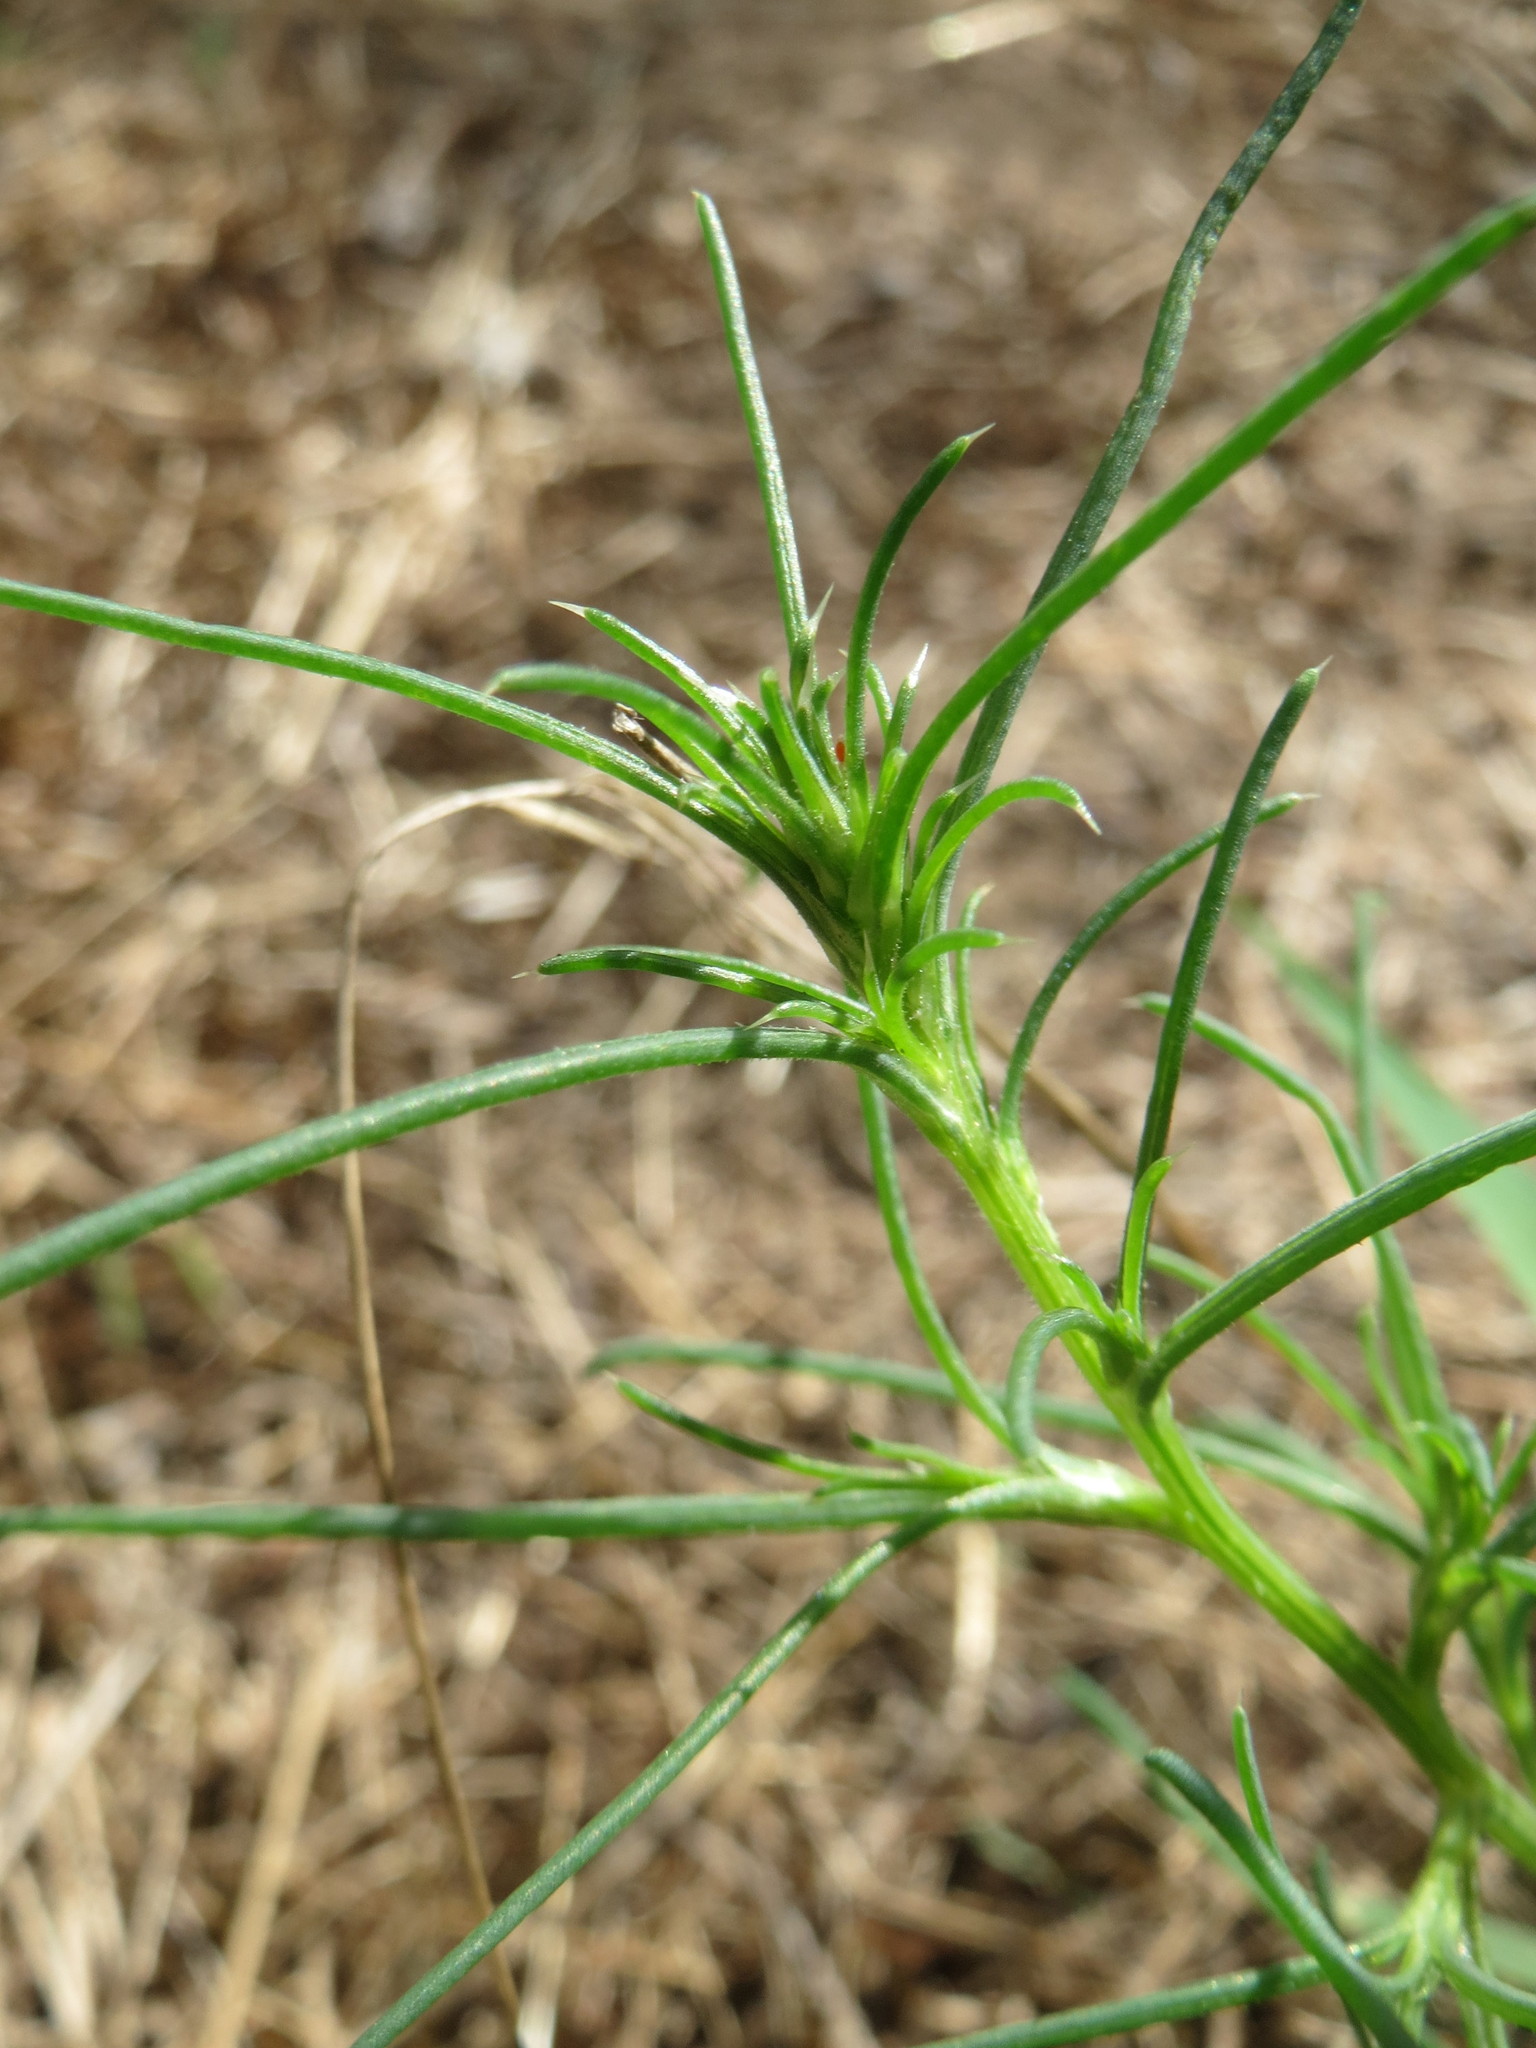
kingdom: Plantae
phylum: Tracheophyta
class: Magnoliopsida
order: Caryophyllales
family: Amaranthaceae
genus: Salsola
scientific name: Salsola tragus
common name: Prickly russian thistle
